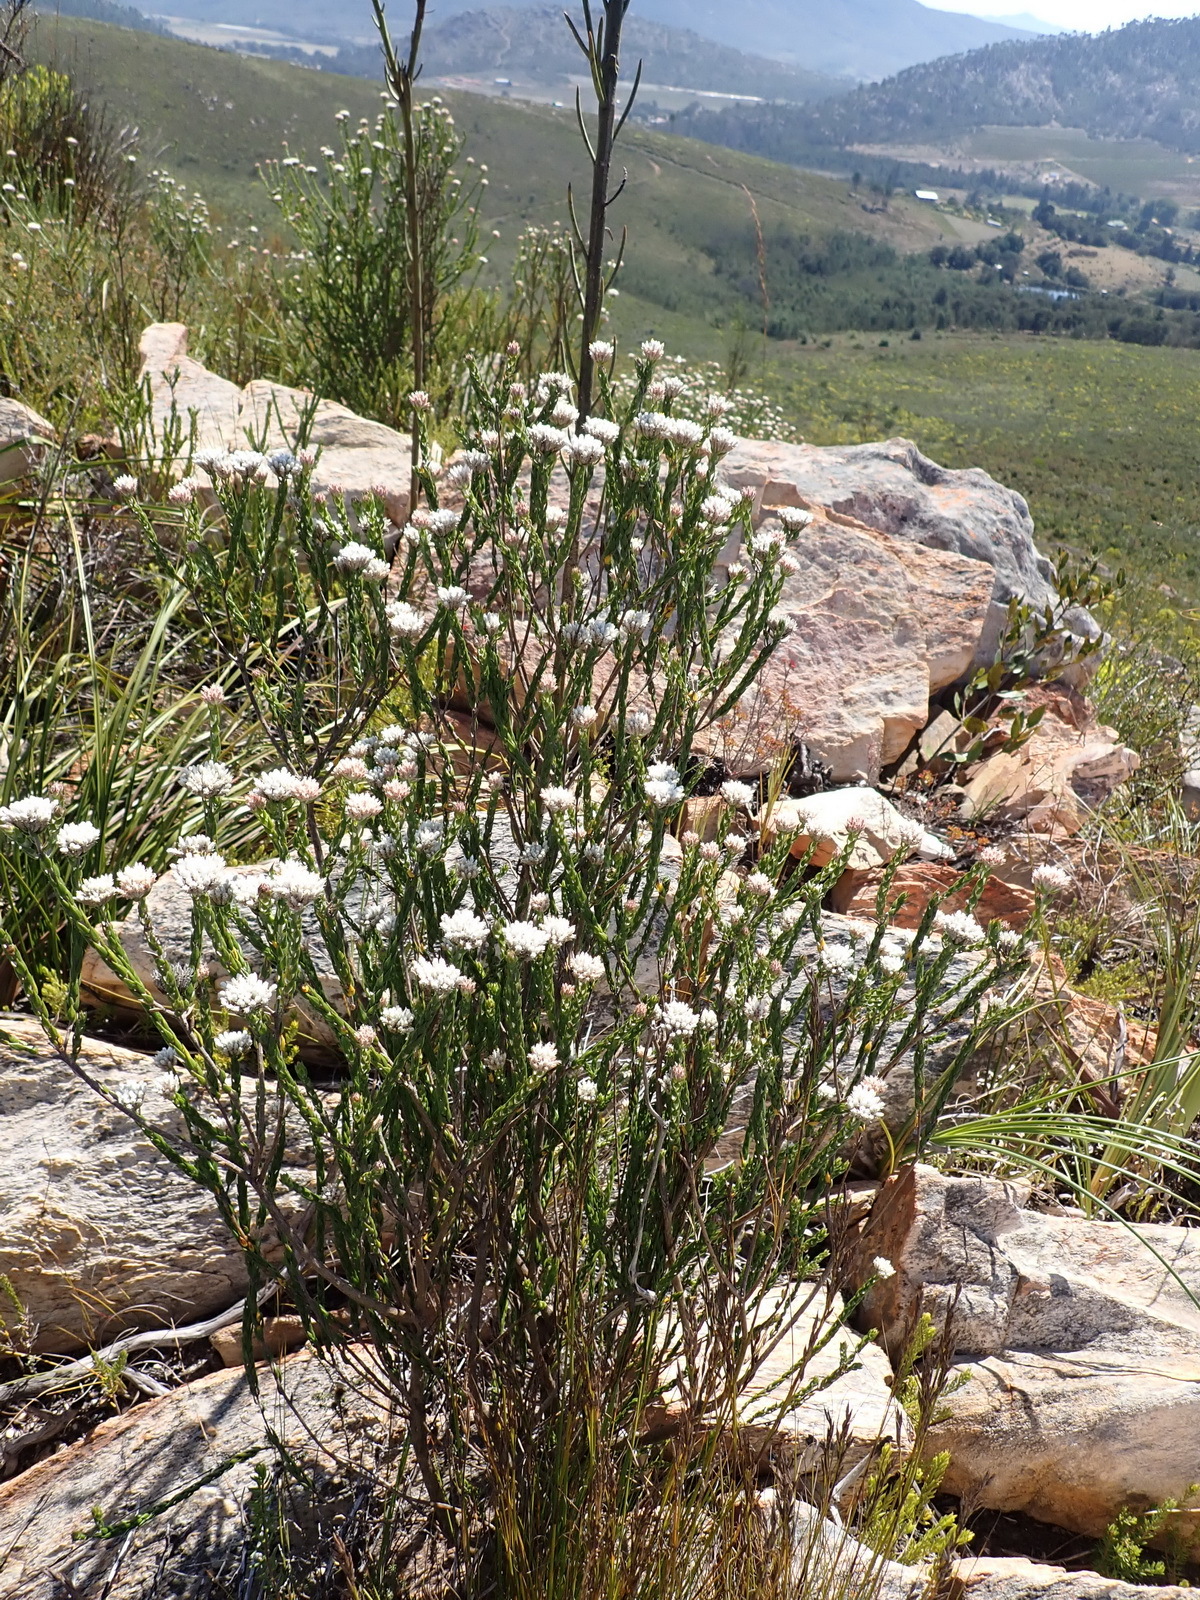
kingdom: Plantae
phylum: Tracheophyta
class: Magnoliopsida
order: Asterales
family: Asteraceae
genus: Metalasia
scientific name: Metalasia pulcherrima
